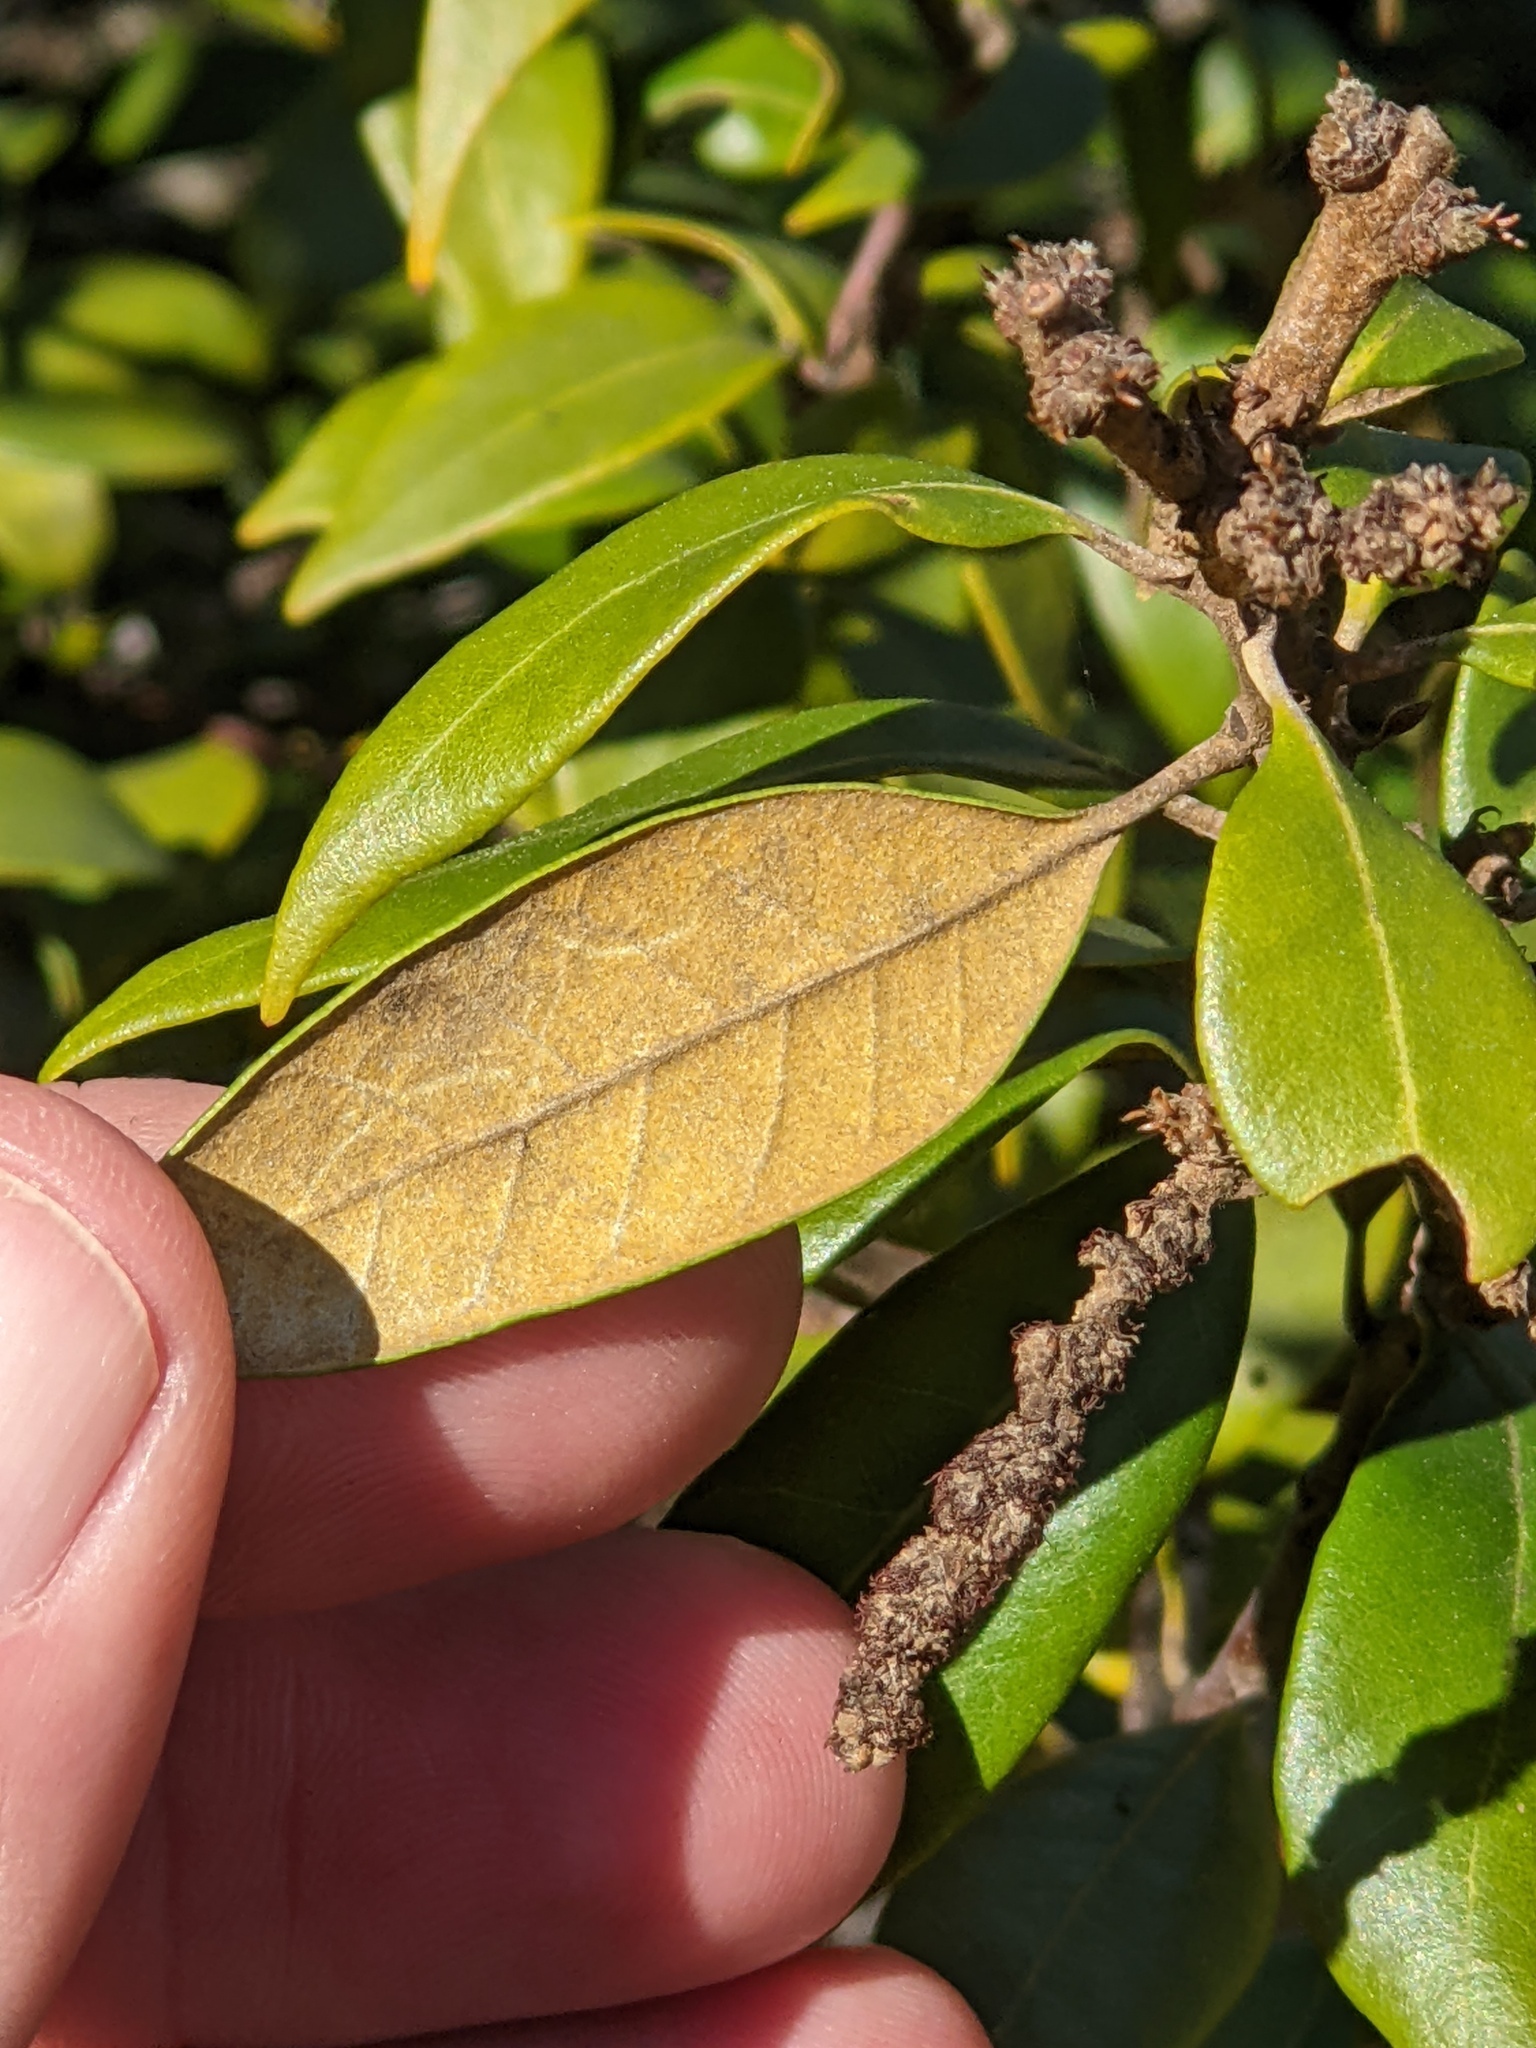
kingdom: Plantae
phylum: Tracheophyta
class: Magnoliopsida
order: Fagales
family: Fagaceae
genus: Chrysolepis
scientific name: Chrysolepis chrysophylla
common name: Giant chinquapin
